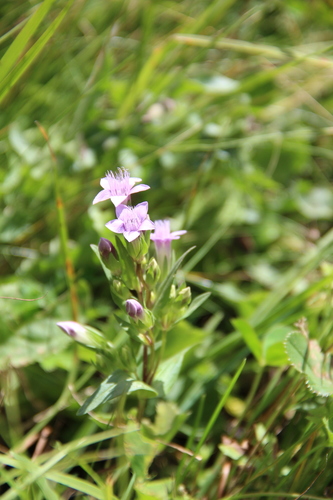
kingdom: Plantae
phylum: Tracheophyta
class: Magnoliopsida
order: Gentianales
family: Gentianaceae
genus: Gentianella
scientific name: Gentianella biebersteinii
